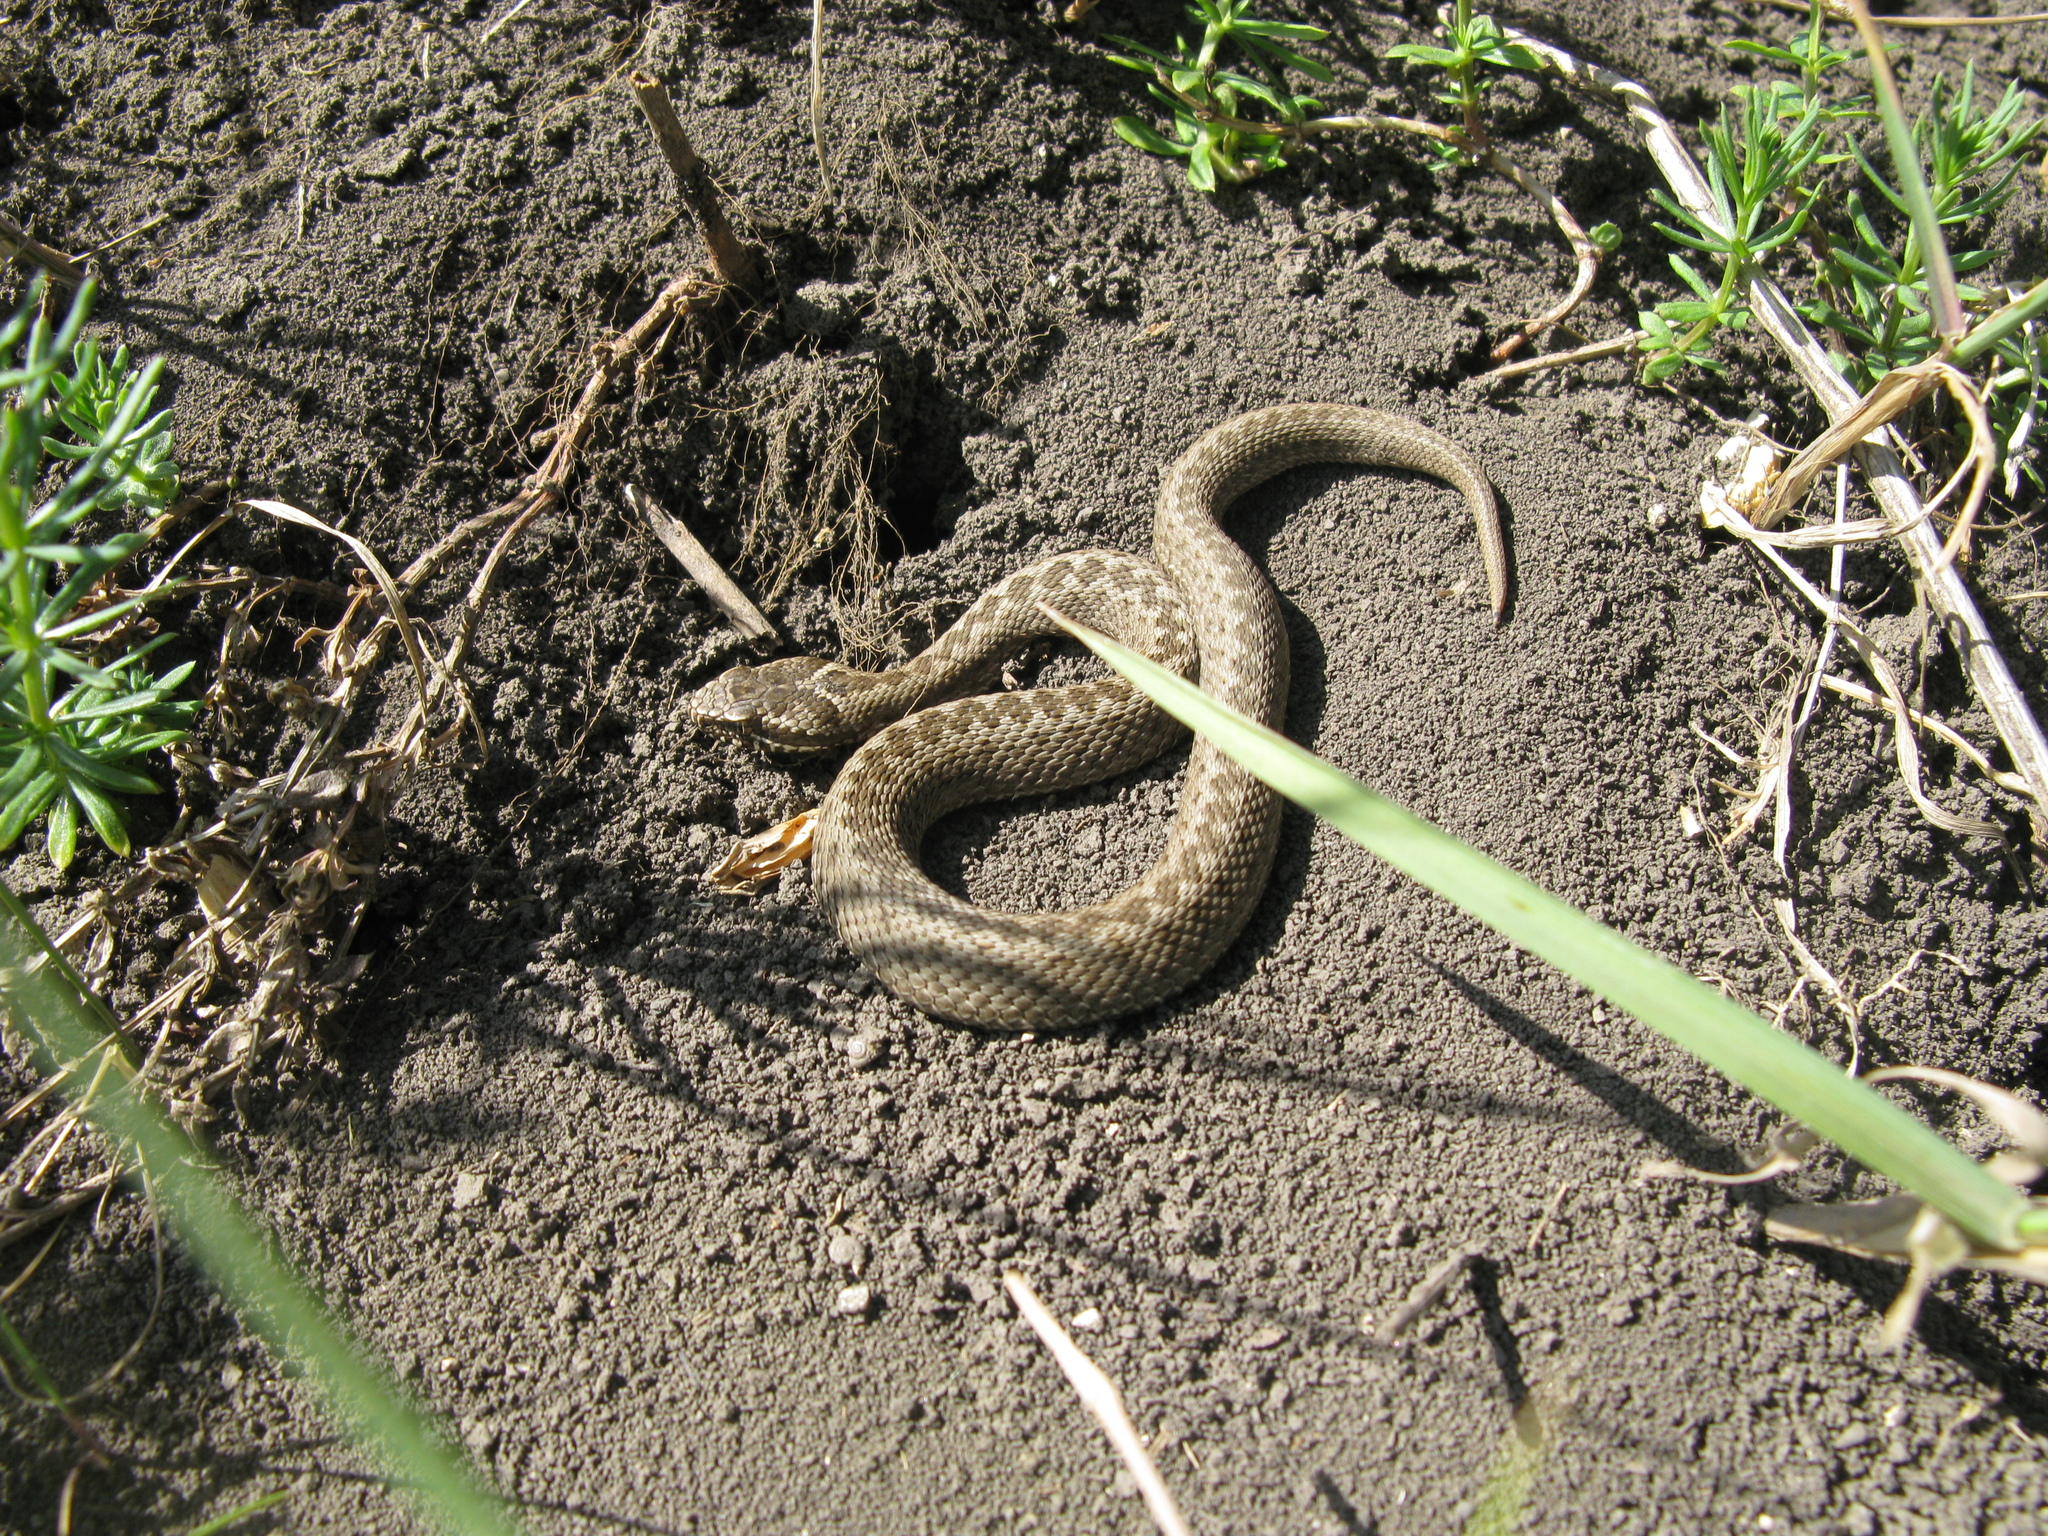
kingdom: Animalia
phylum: Chordata
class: Squamata
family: Viperidae
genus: Vipera
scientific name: Vipera renardi
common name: Eastern steppe viper
